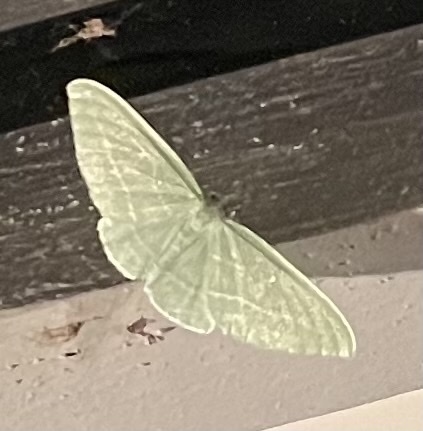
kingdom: Animalia
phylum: Arthropoda
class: Insecta
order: Lepidoptera
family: Geometridae
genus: Dyspteris
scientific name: Dyspteris abortivaria
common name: Bad-wing
